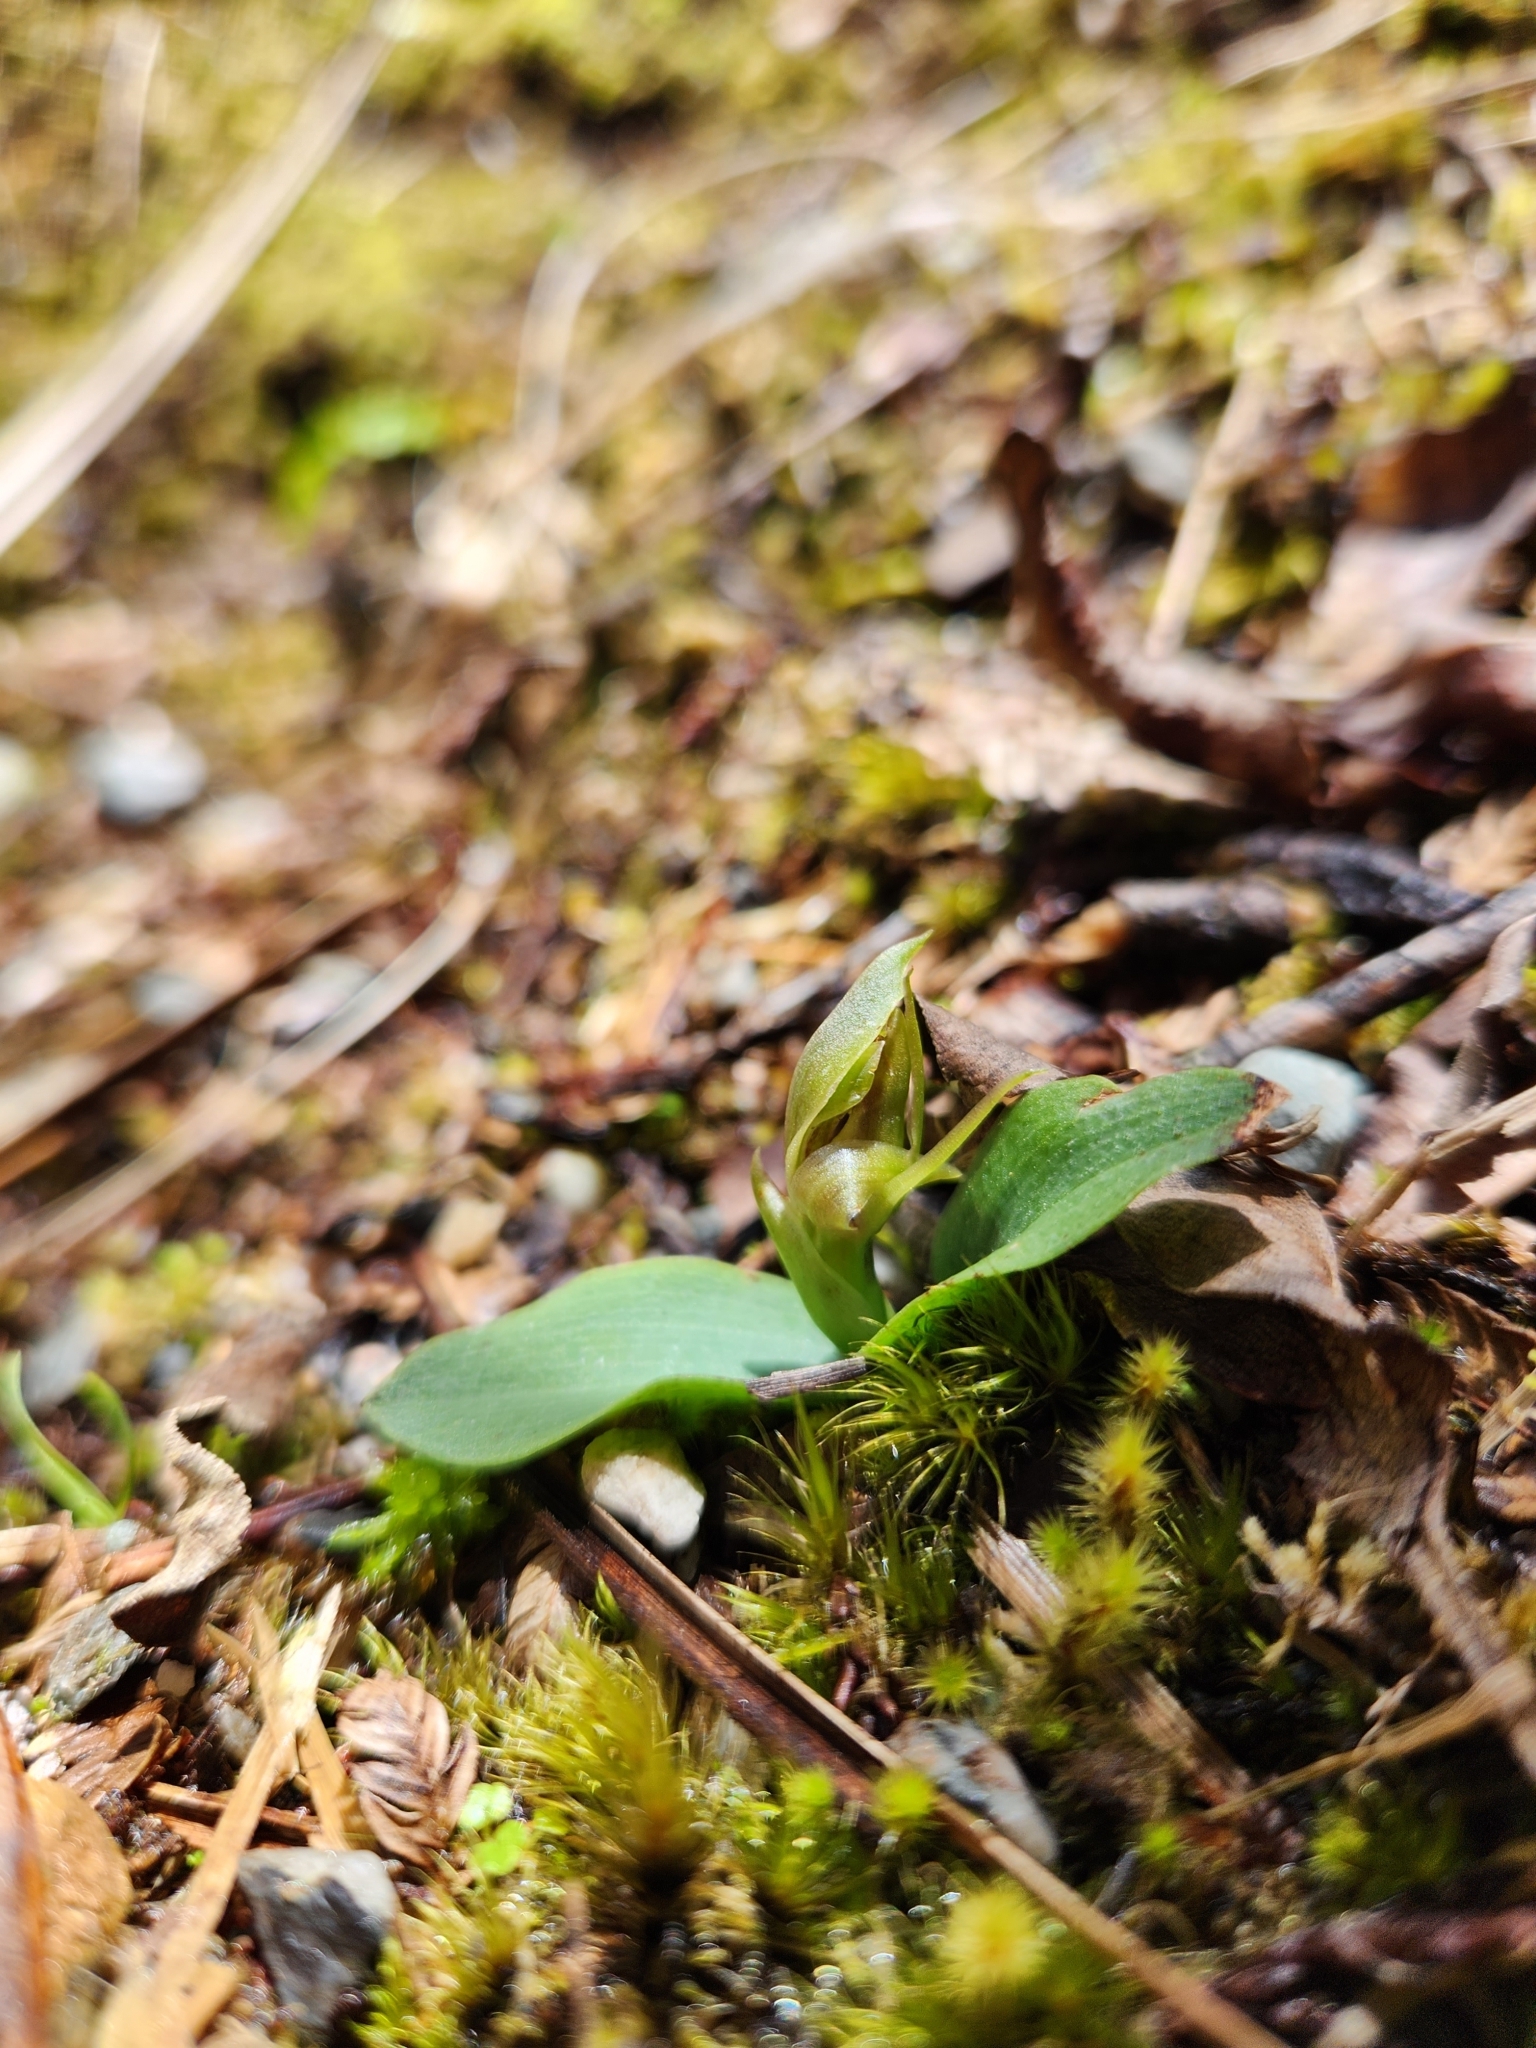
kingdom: Plantae
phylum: Tracheophyta
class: Liliopsida
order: Asparagales
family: Orchidaceae
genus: Chiloglottis
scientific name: Chiloglottis cornuta
